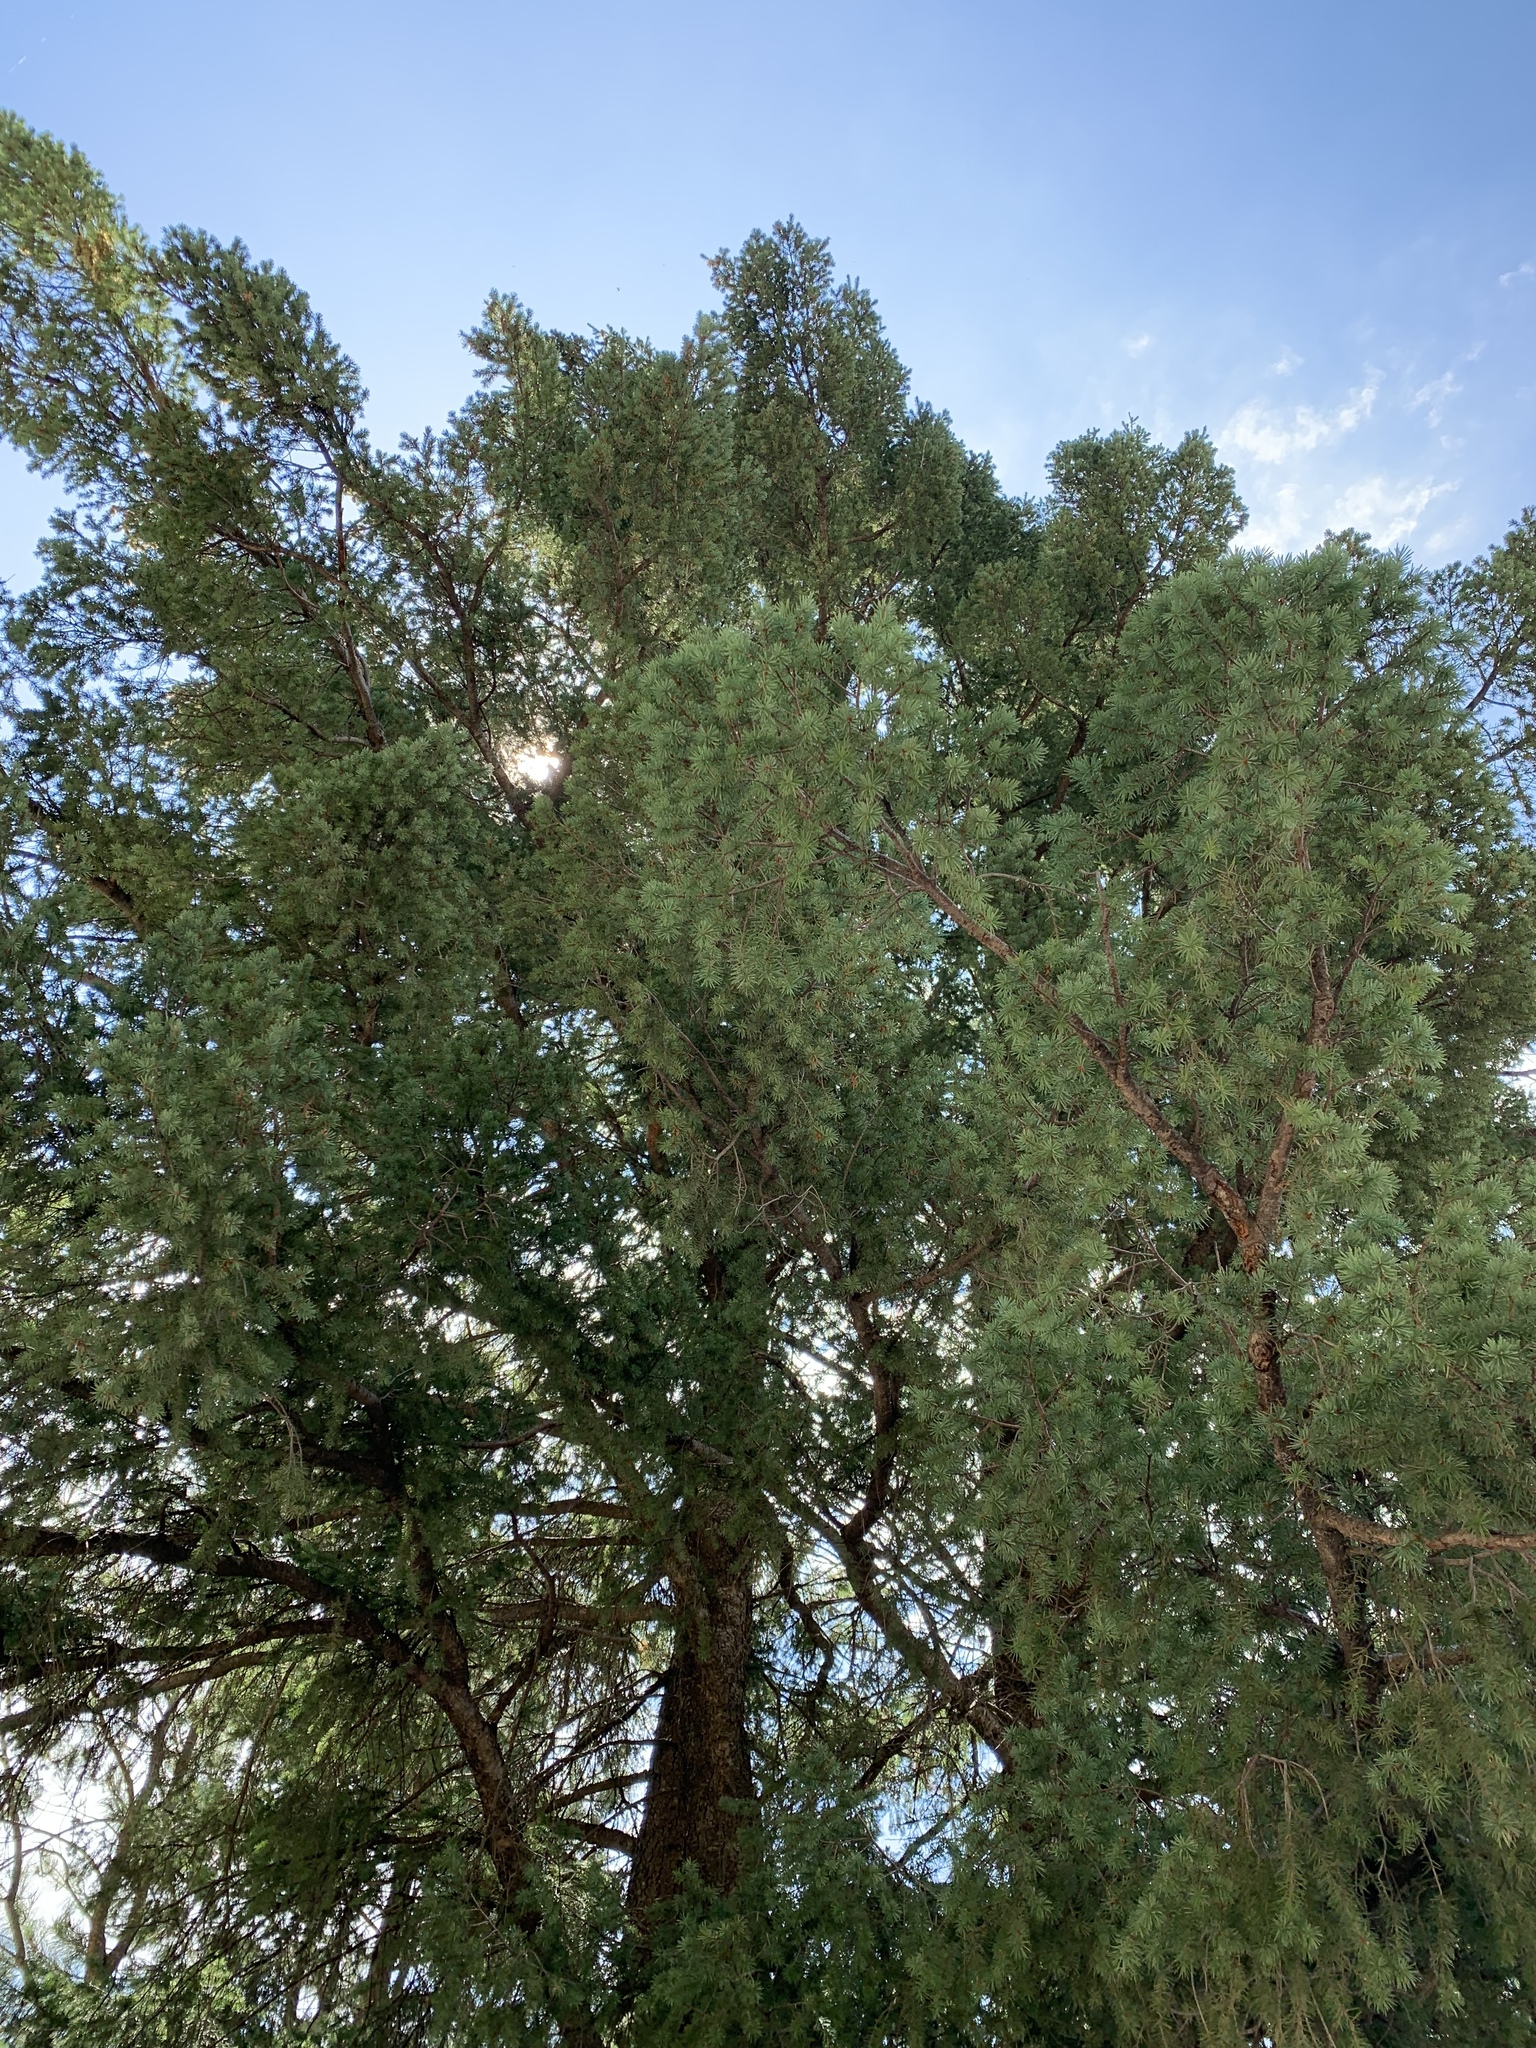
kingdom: Plantae
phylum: Tracheophyta
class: Pinopsida
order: Pinales
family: Pinaceae
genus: Pseudotsuga
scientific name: Pseudotsuga menziesii
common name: Douglas fir
